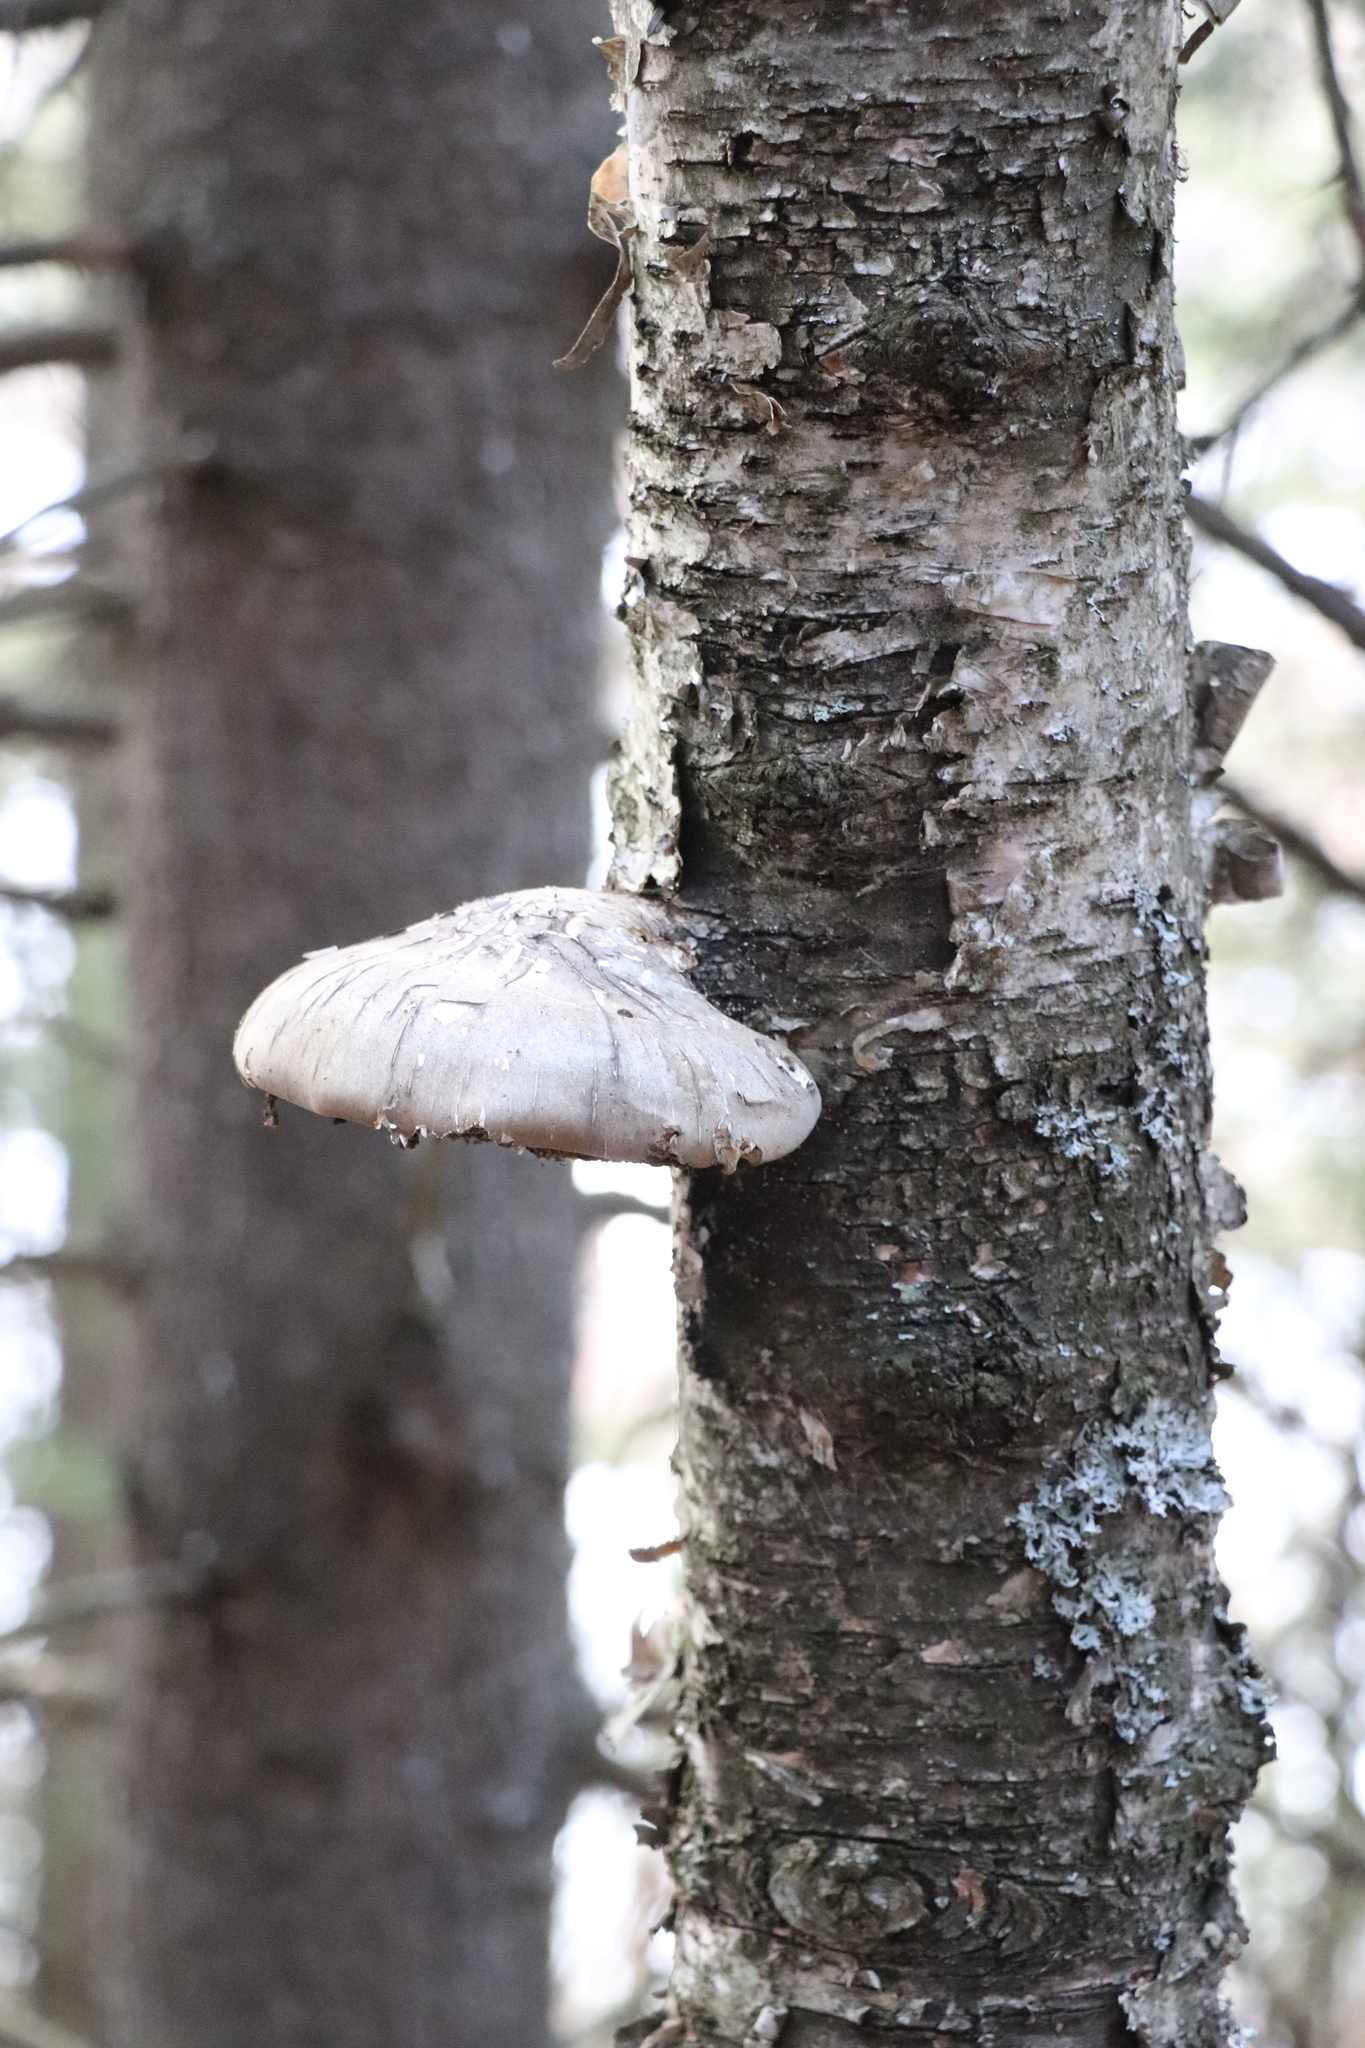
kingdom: Fungi
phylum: Basidiomycota
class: Agaricomycetes
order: Polyporales
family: Fomitopsidaceae
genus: Fomitopsis
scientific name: Fomitopsis betulina
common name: Birch polypore
